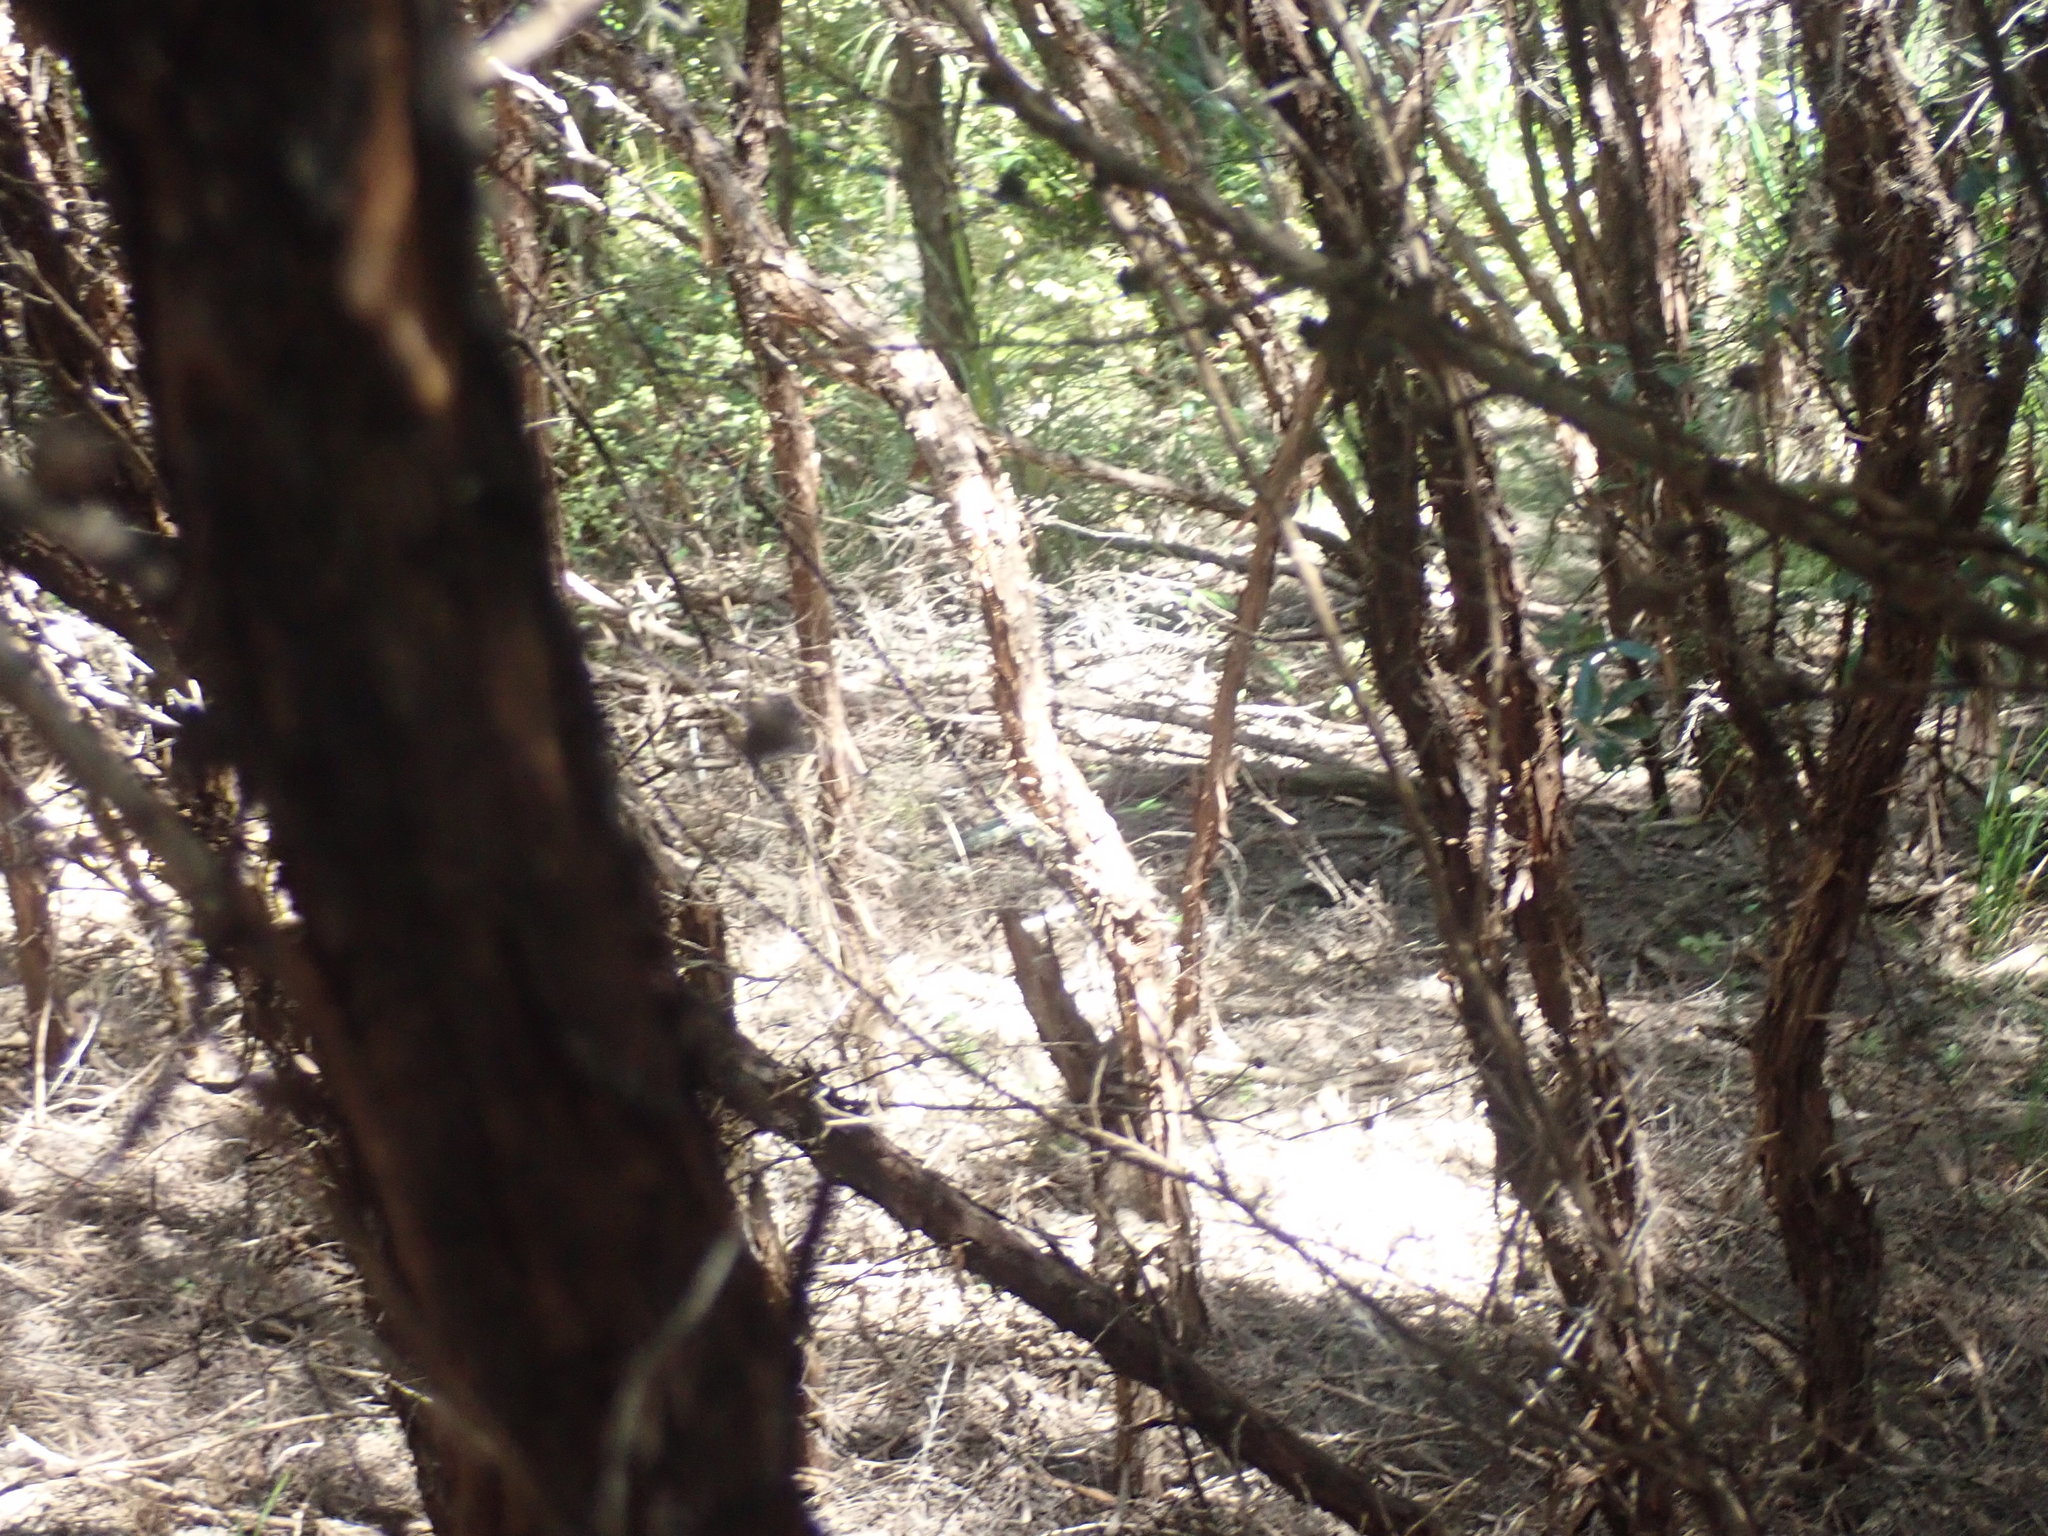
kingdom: Plantae
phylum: Tracheophyta
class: Magnoliopsida
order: Myrtales
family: Myrtaceae
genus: Leptospermum
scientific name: Leptospermum scoparium
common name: Broom tea-tree
